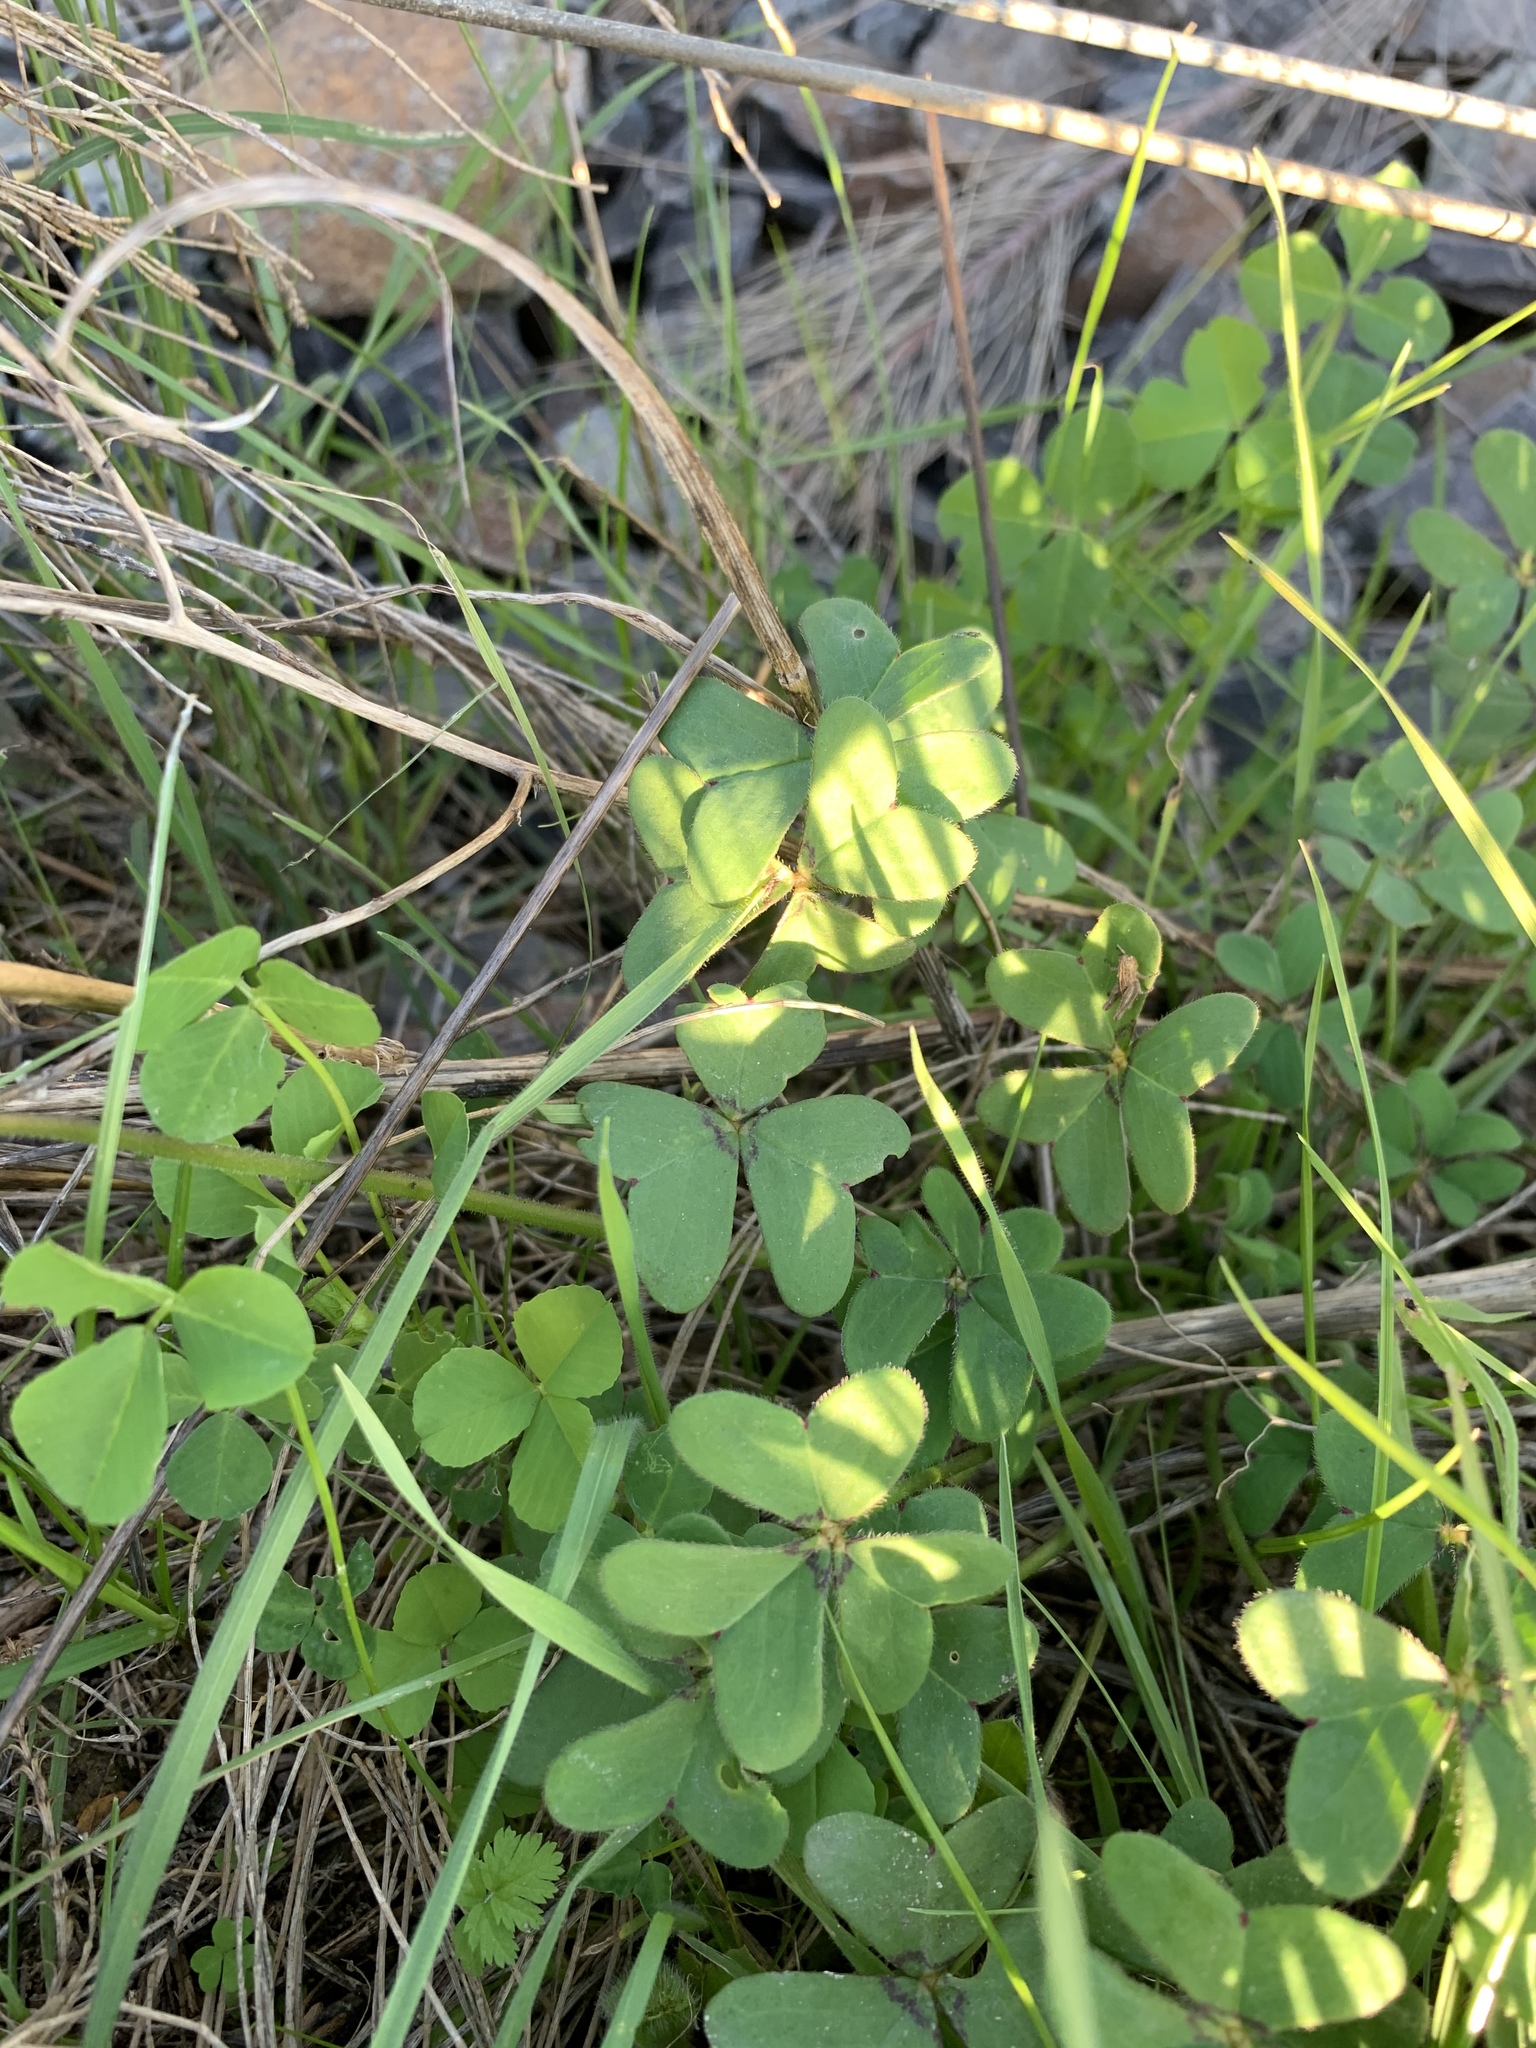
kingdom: Plantae
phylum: Tracheophyta
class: Magnoliopsida
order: Oxalidales
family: Oxalidaceae
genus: Oxalis
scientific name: Oxalis pes-caprae
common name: Bermuda-buttercup
